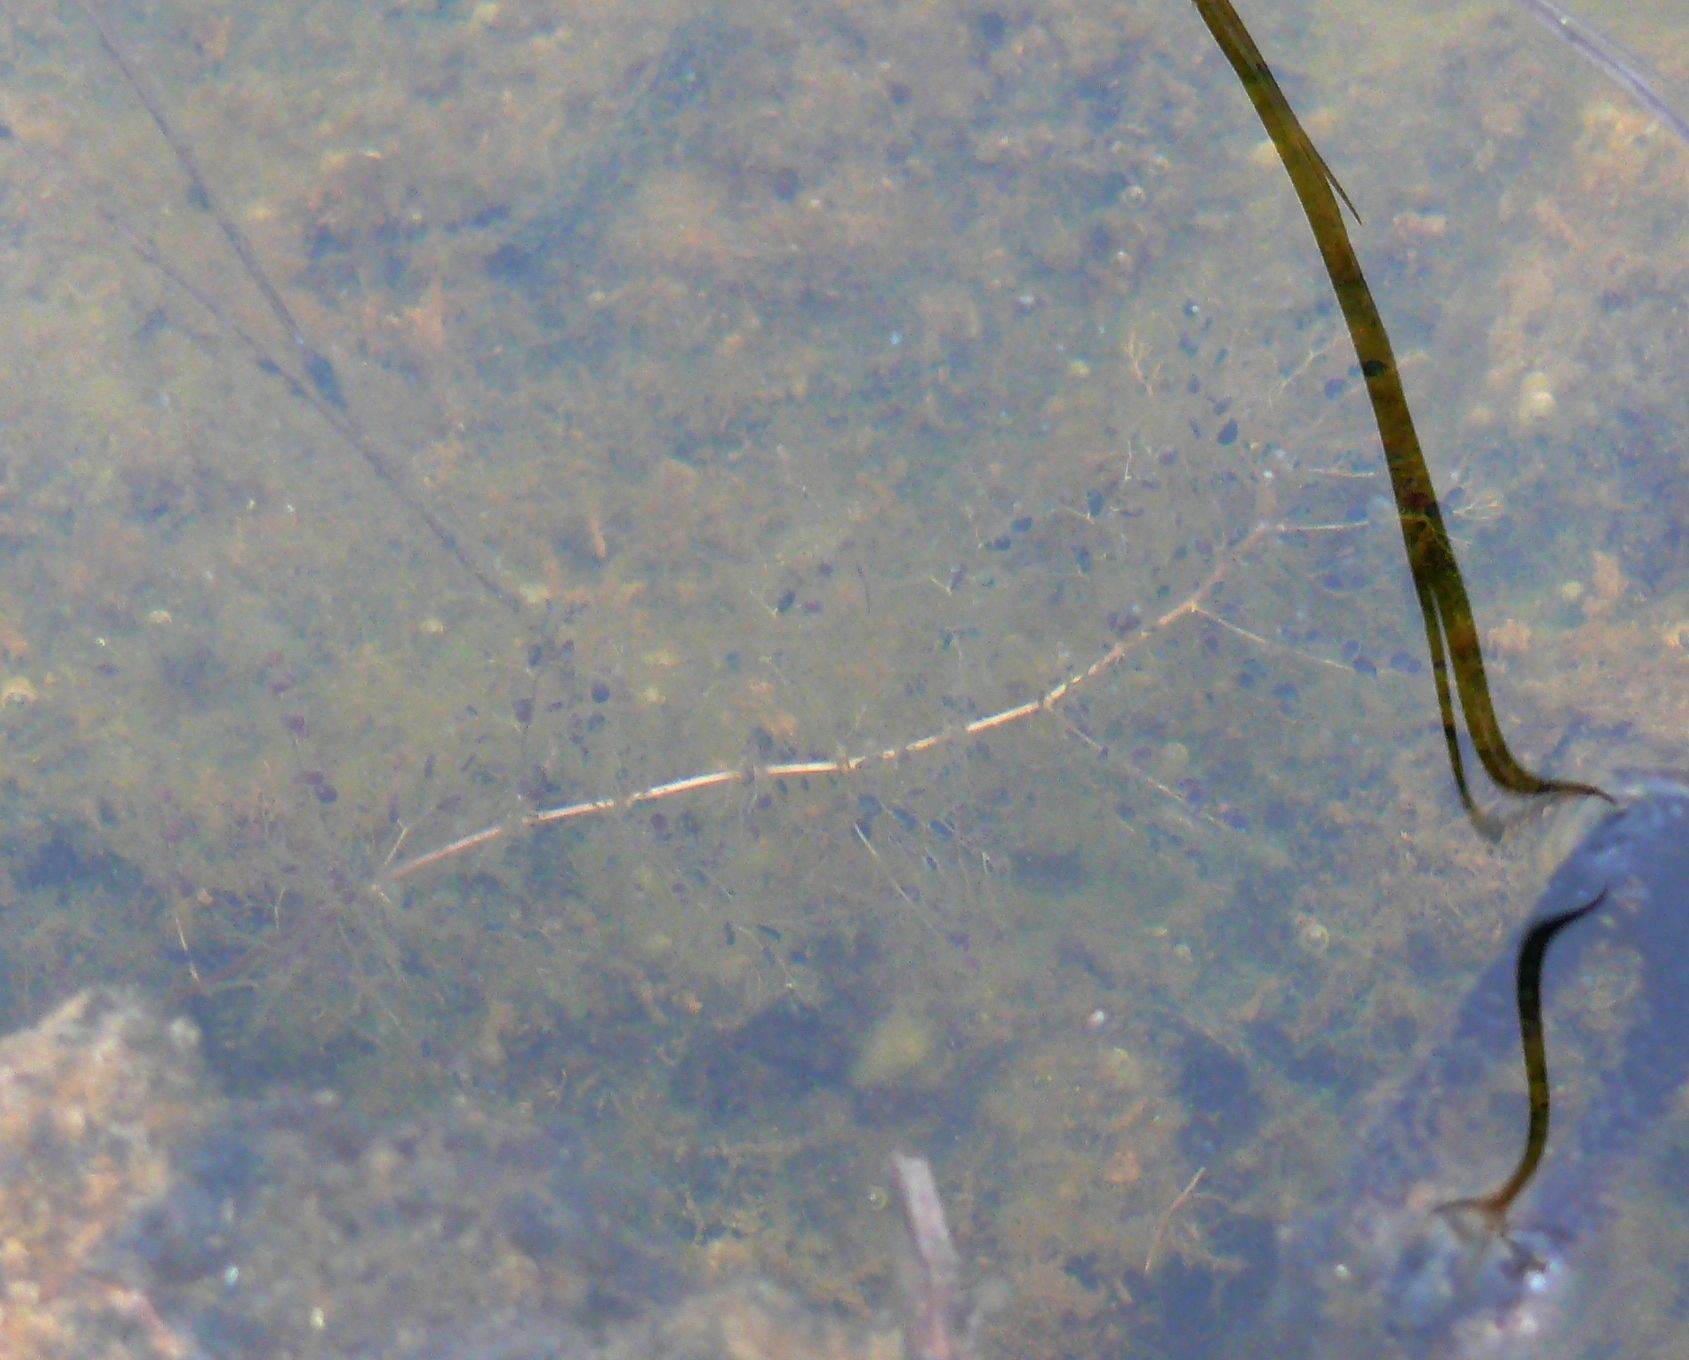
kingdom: Plantae
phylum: Tracheophyta
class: Magnoliopsida
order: Lamiales
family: Lentibulariaceae
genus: Utricularia
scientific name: Utricularia macrorhiza
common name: Common bladderwort
